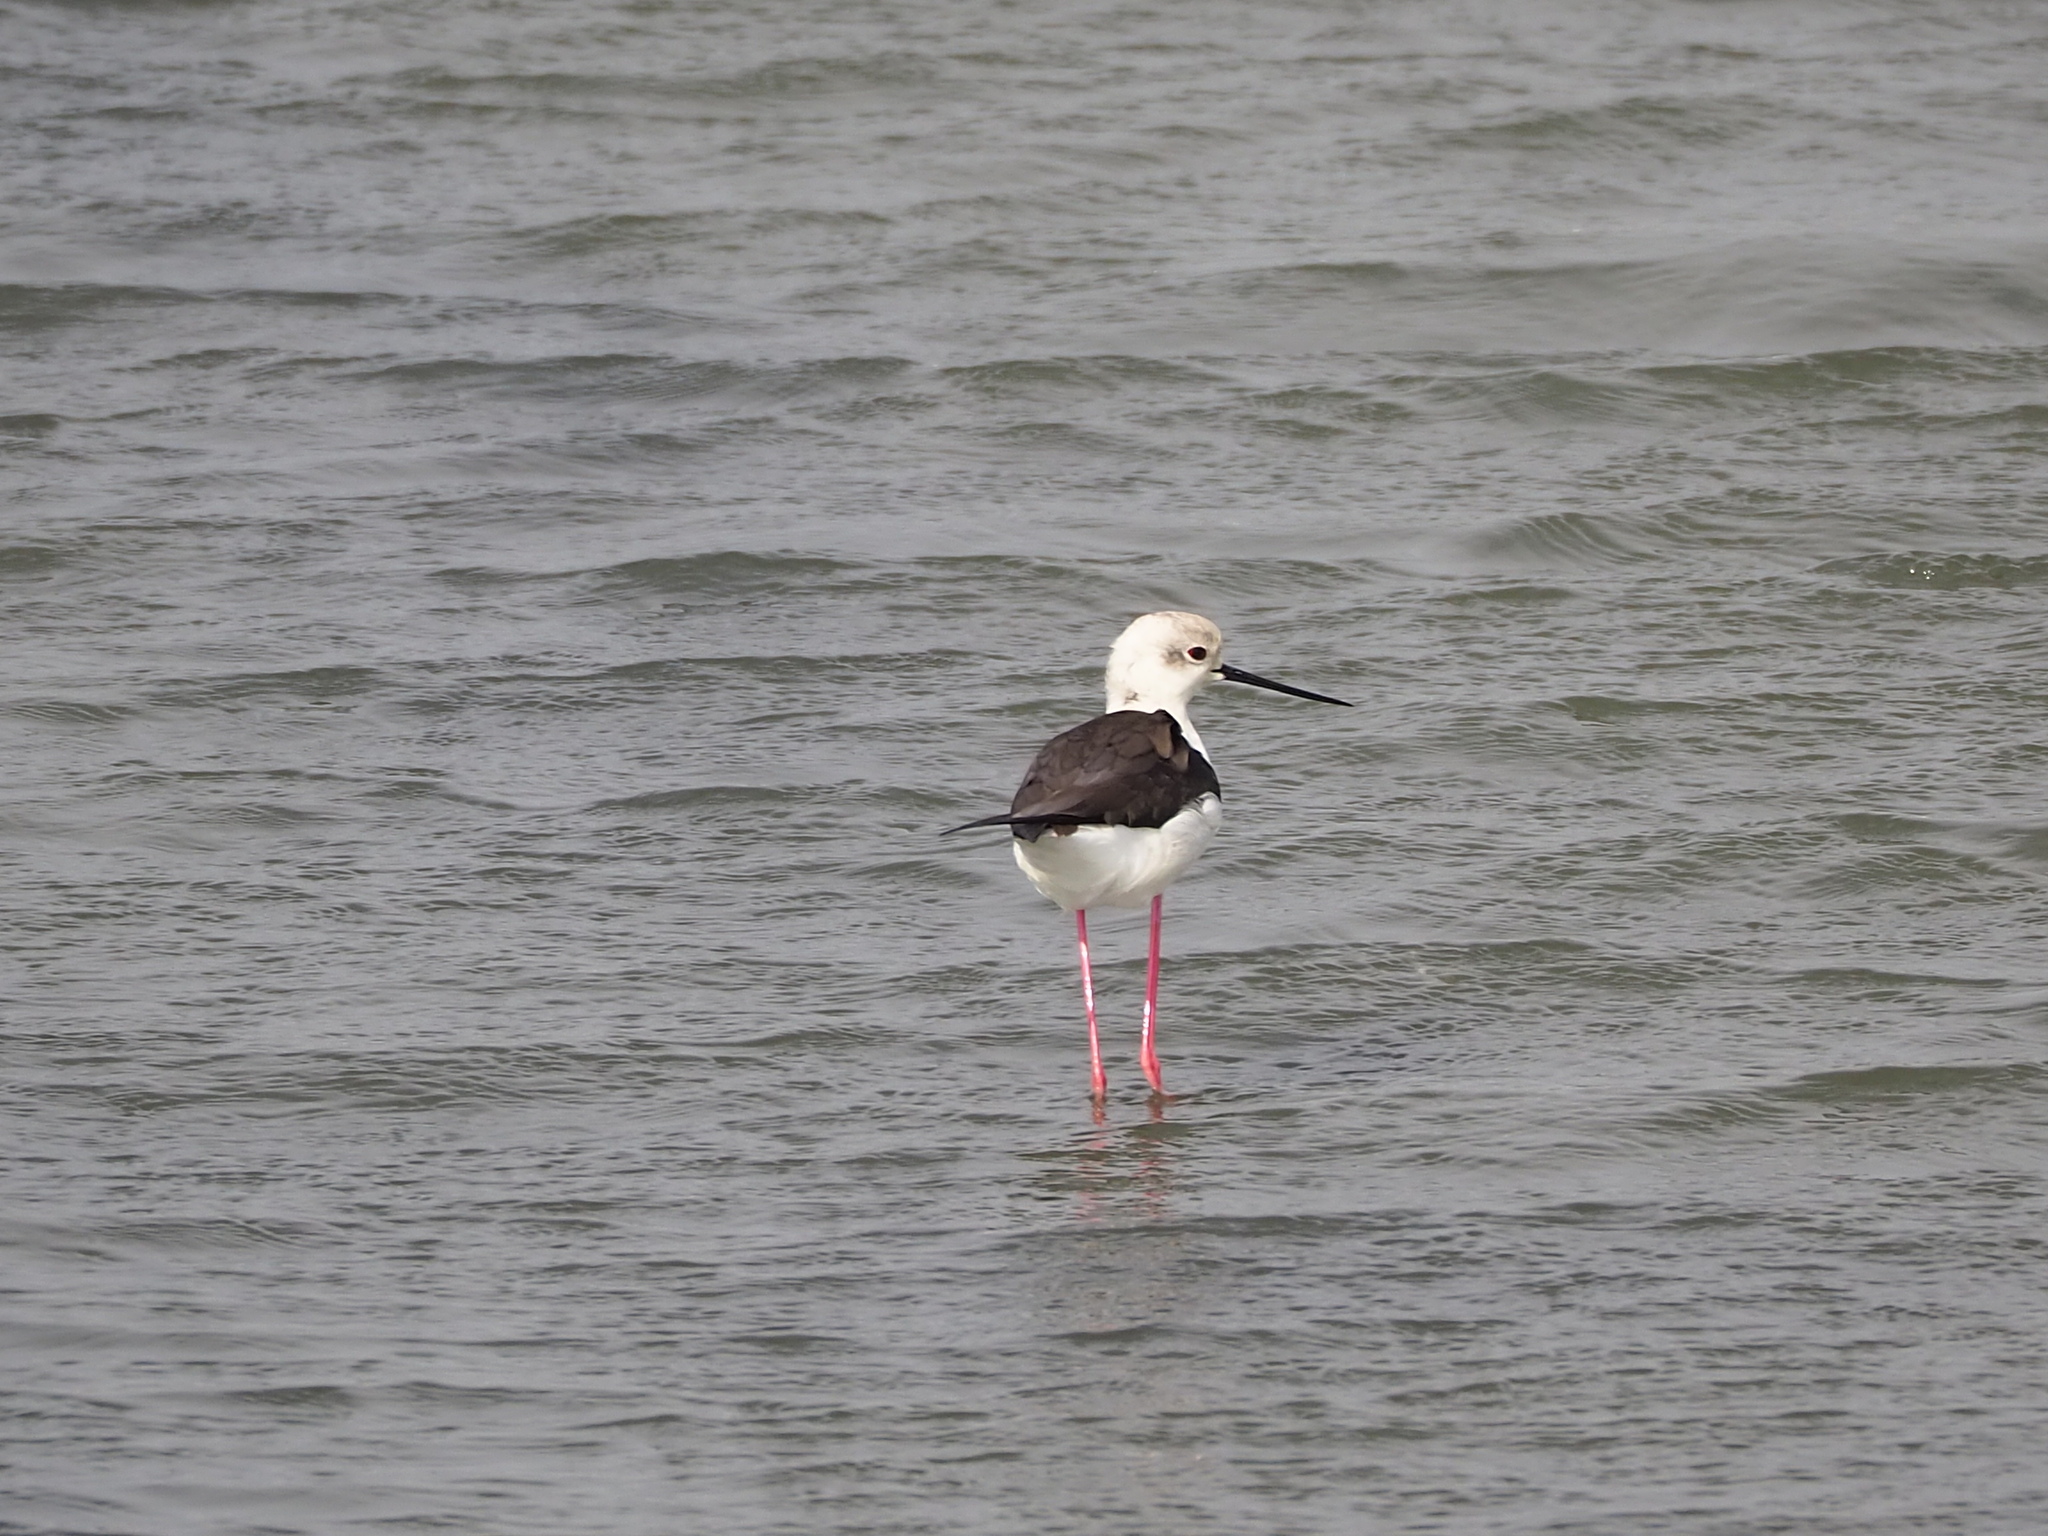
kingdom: Animalia
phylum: Chordata
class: Aves
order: Charadriiformes
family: Recurvirostridae
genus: Himantopus
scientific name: Himantopus himantopus
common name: Black-winged stilt
